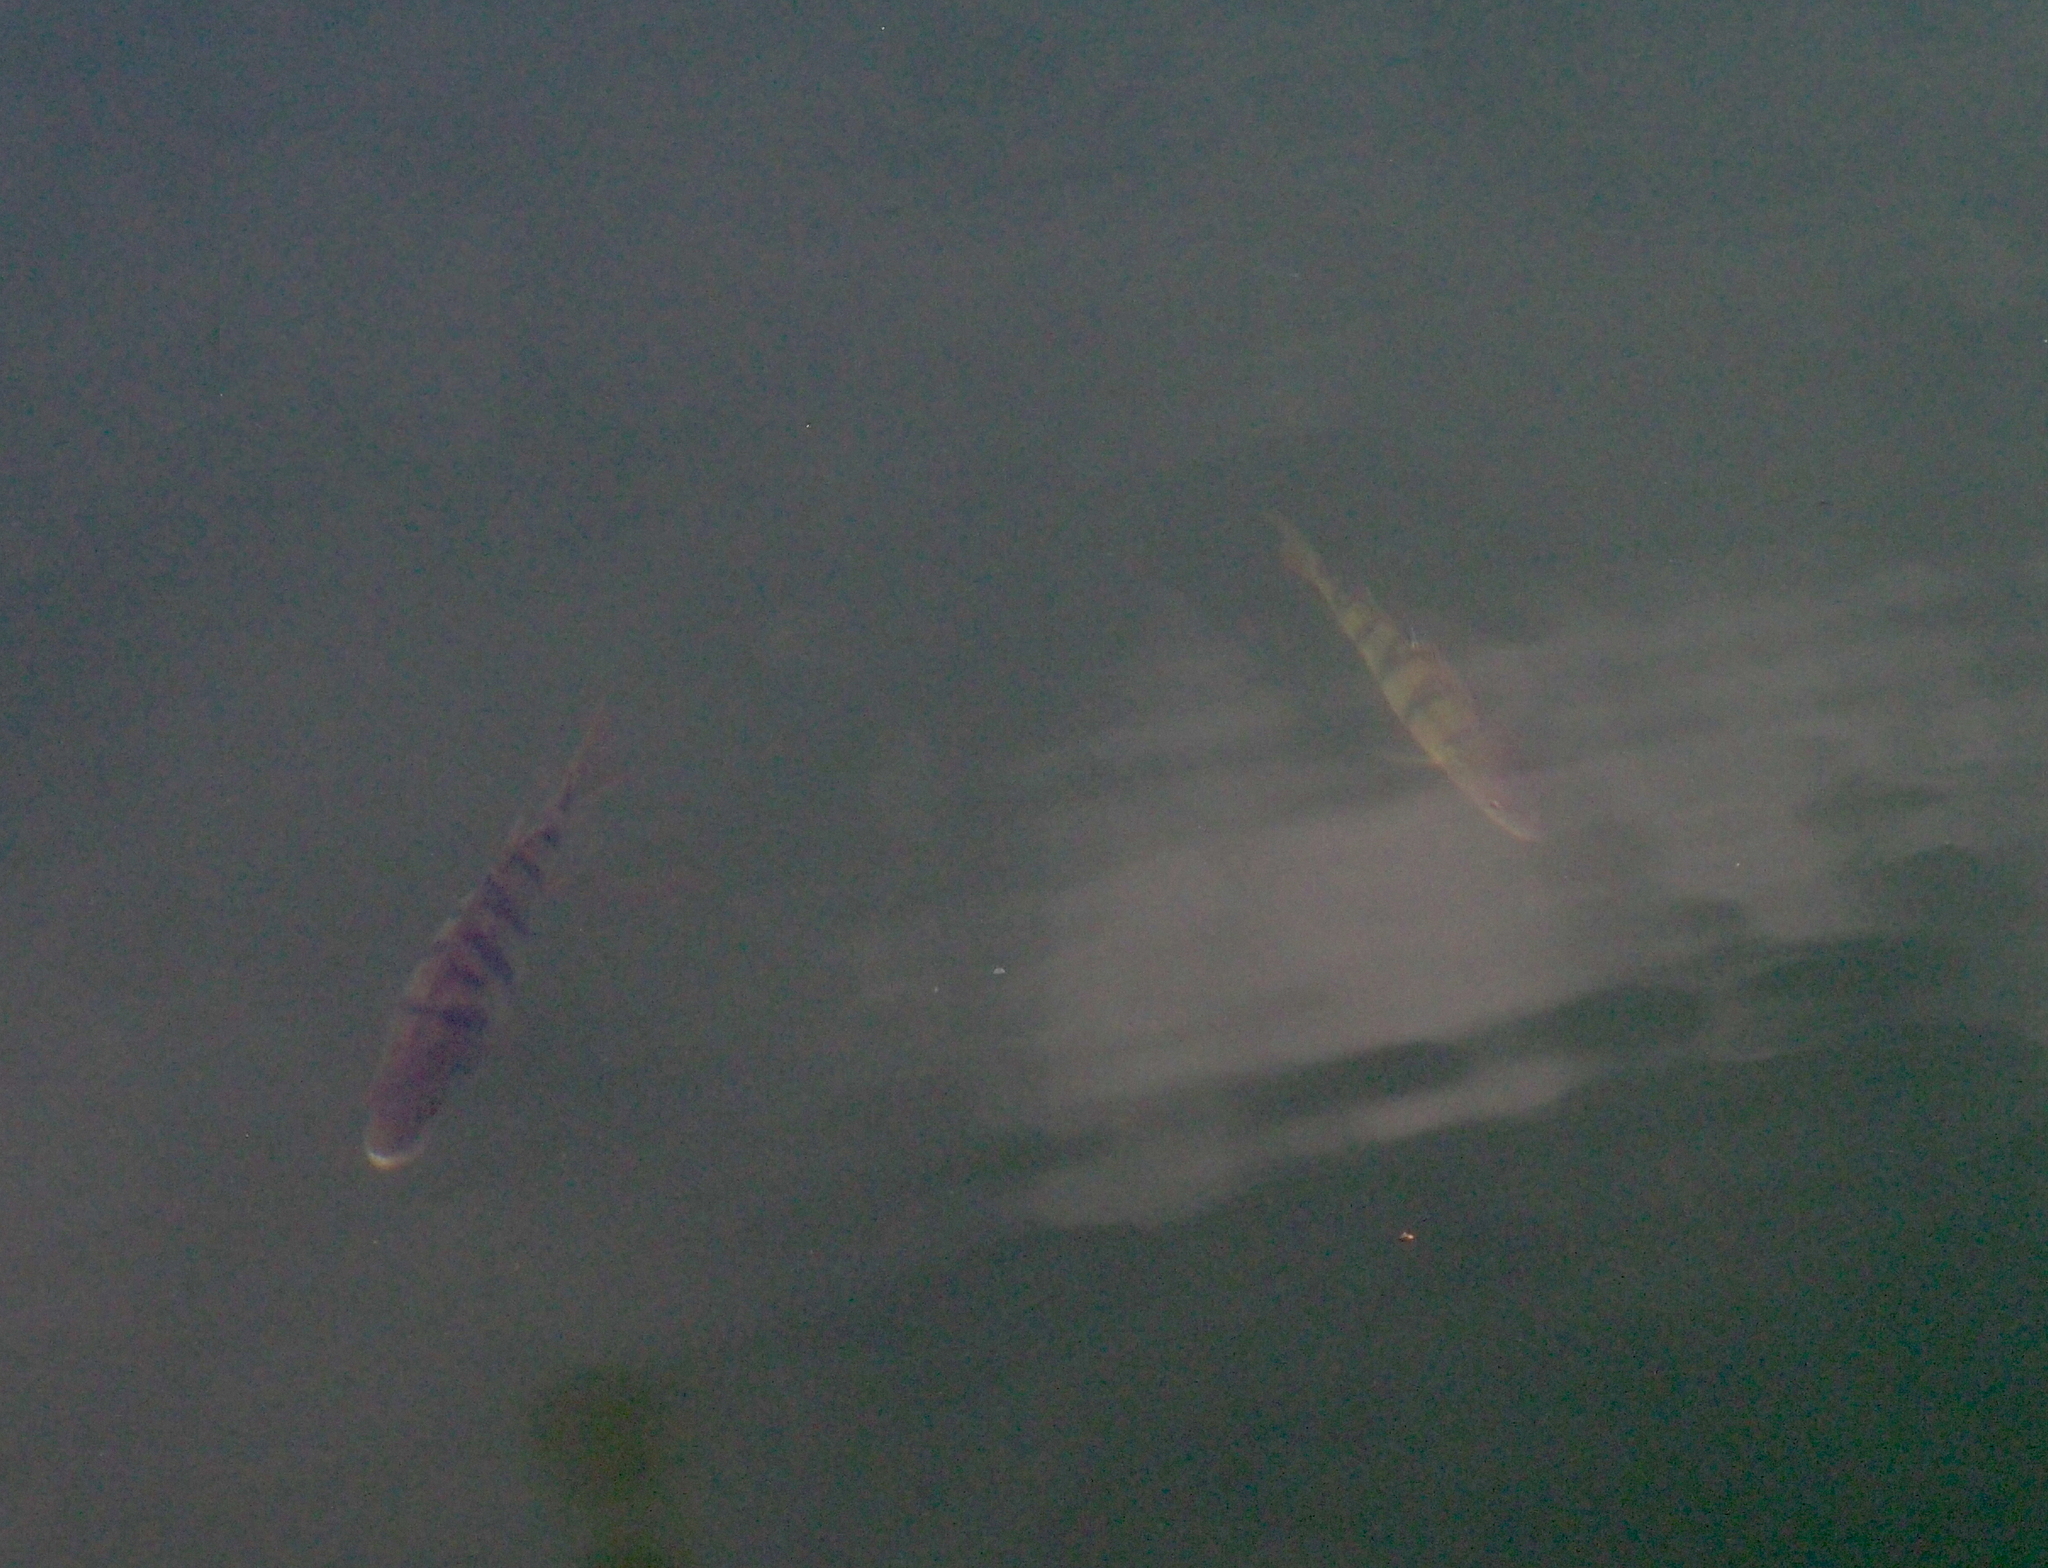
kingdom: Animalia
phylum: Chordata
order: Perciformes
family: Percidae
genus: Perca
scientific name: Perca fluviatilis
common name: Perch
